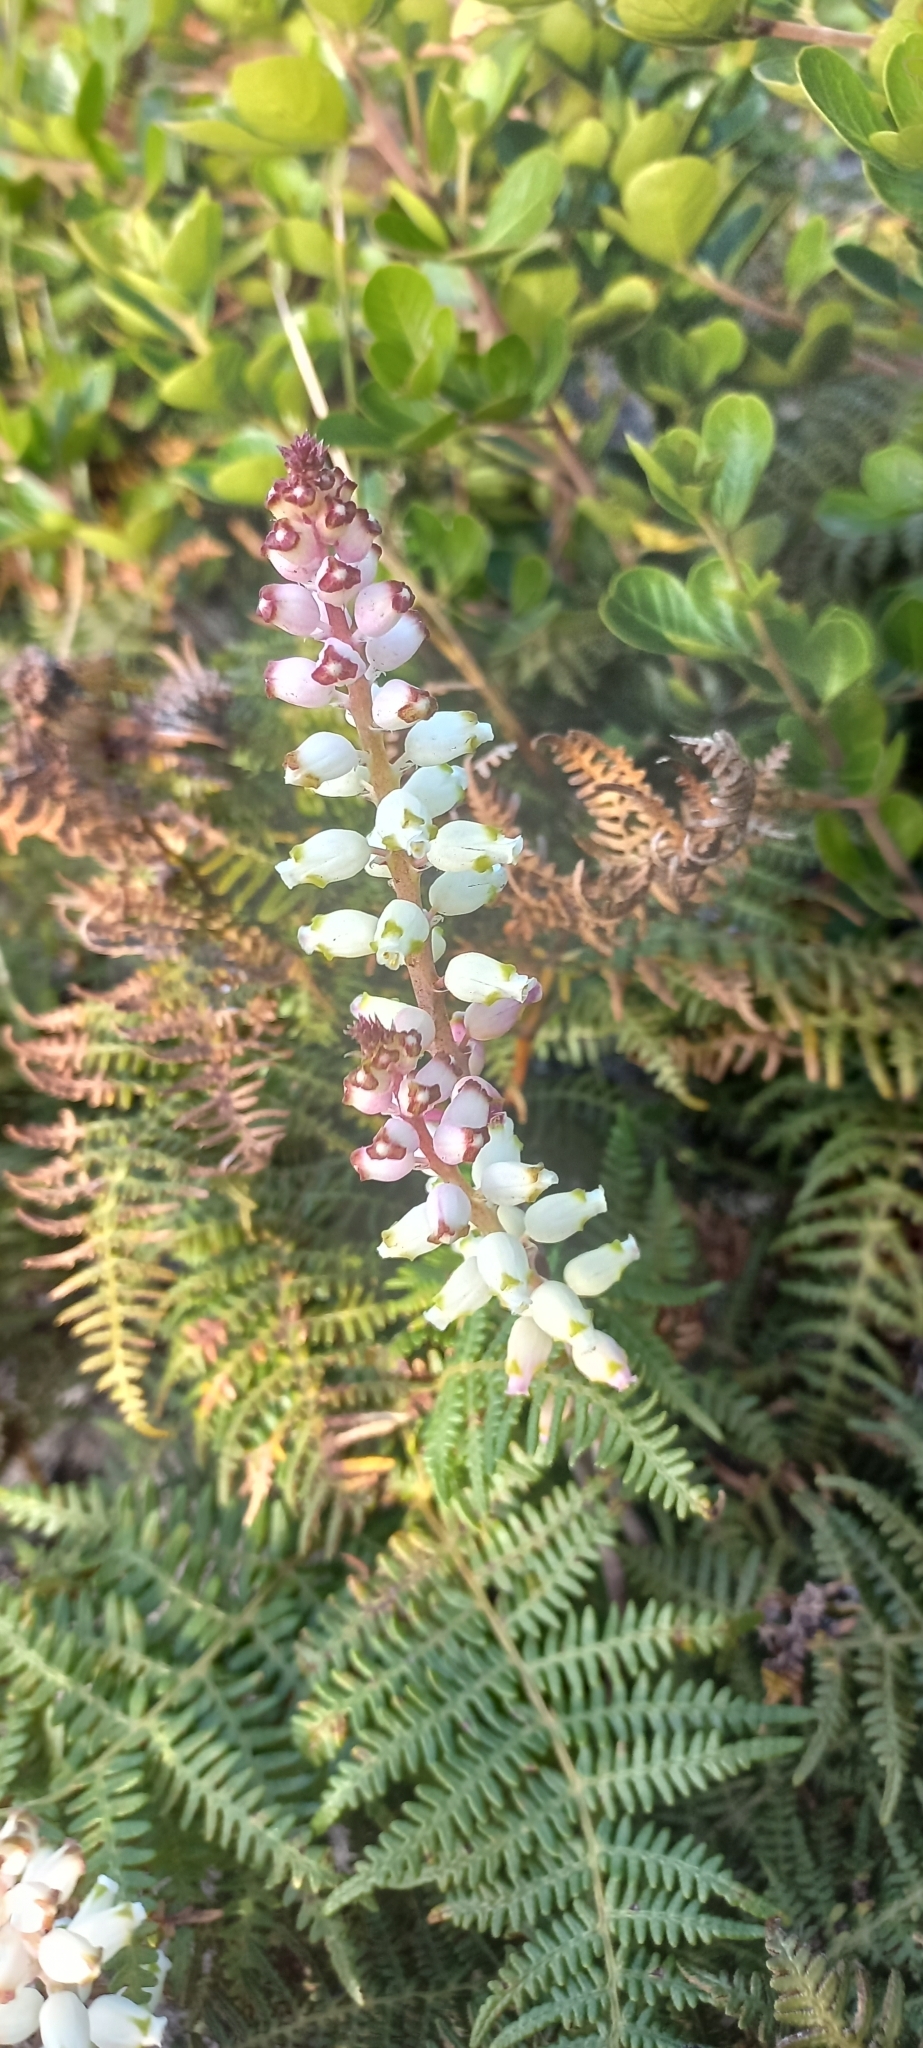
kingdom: Plantae
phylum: Tracheophyta
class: Liliopsida
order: Asparagales
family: Asparagaceae
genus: Lachenalia
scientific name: Lachenalia peersii
